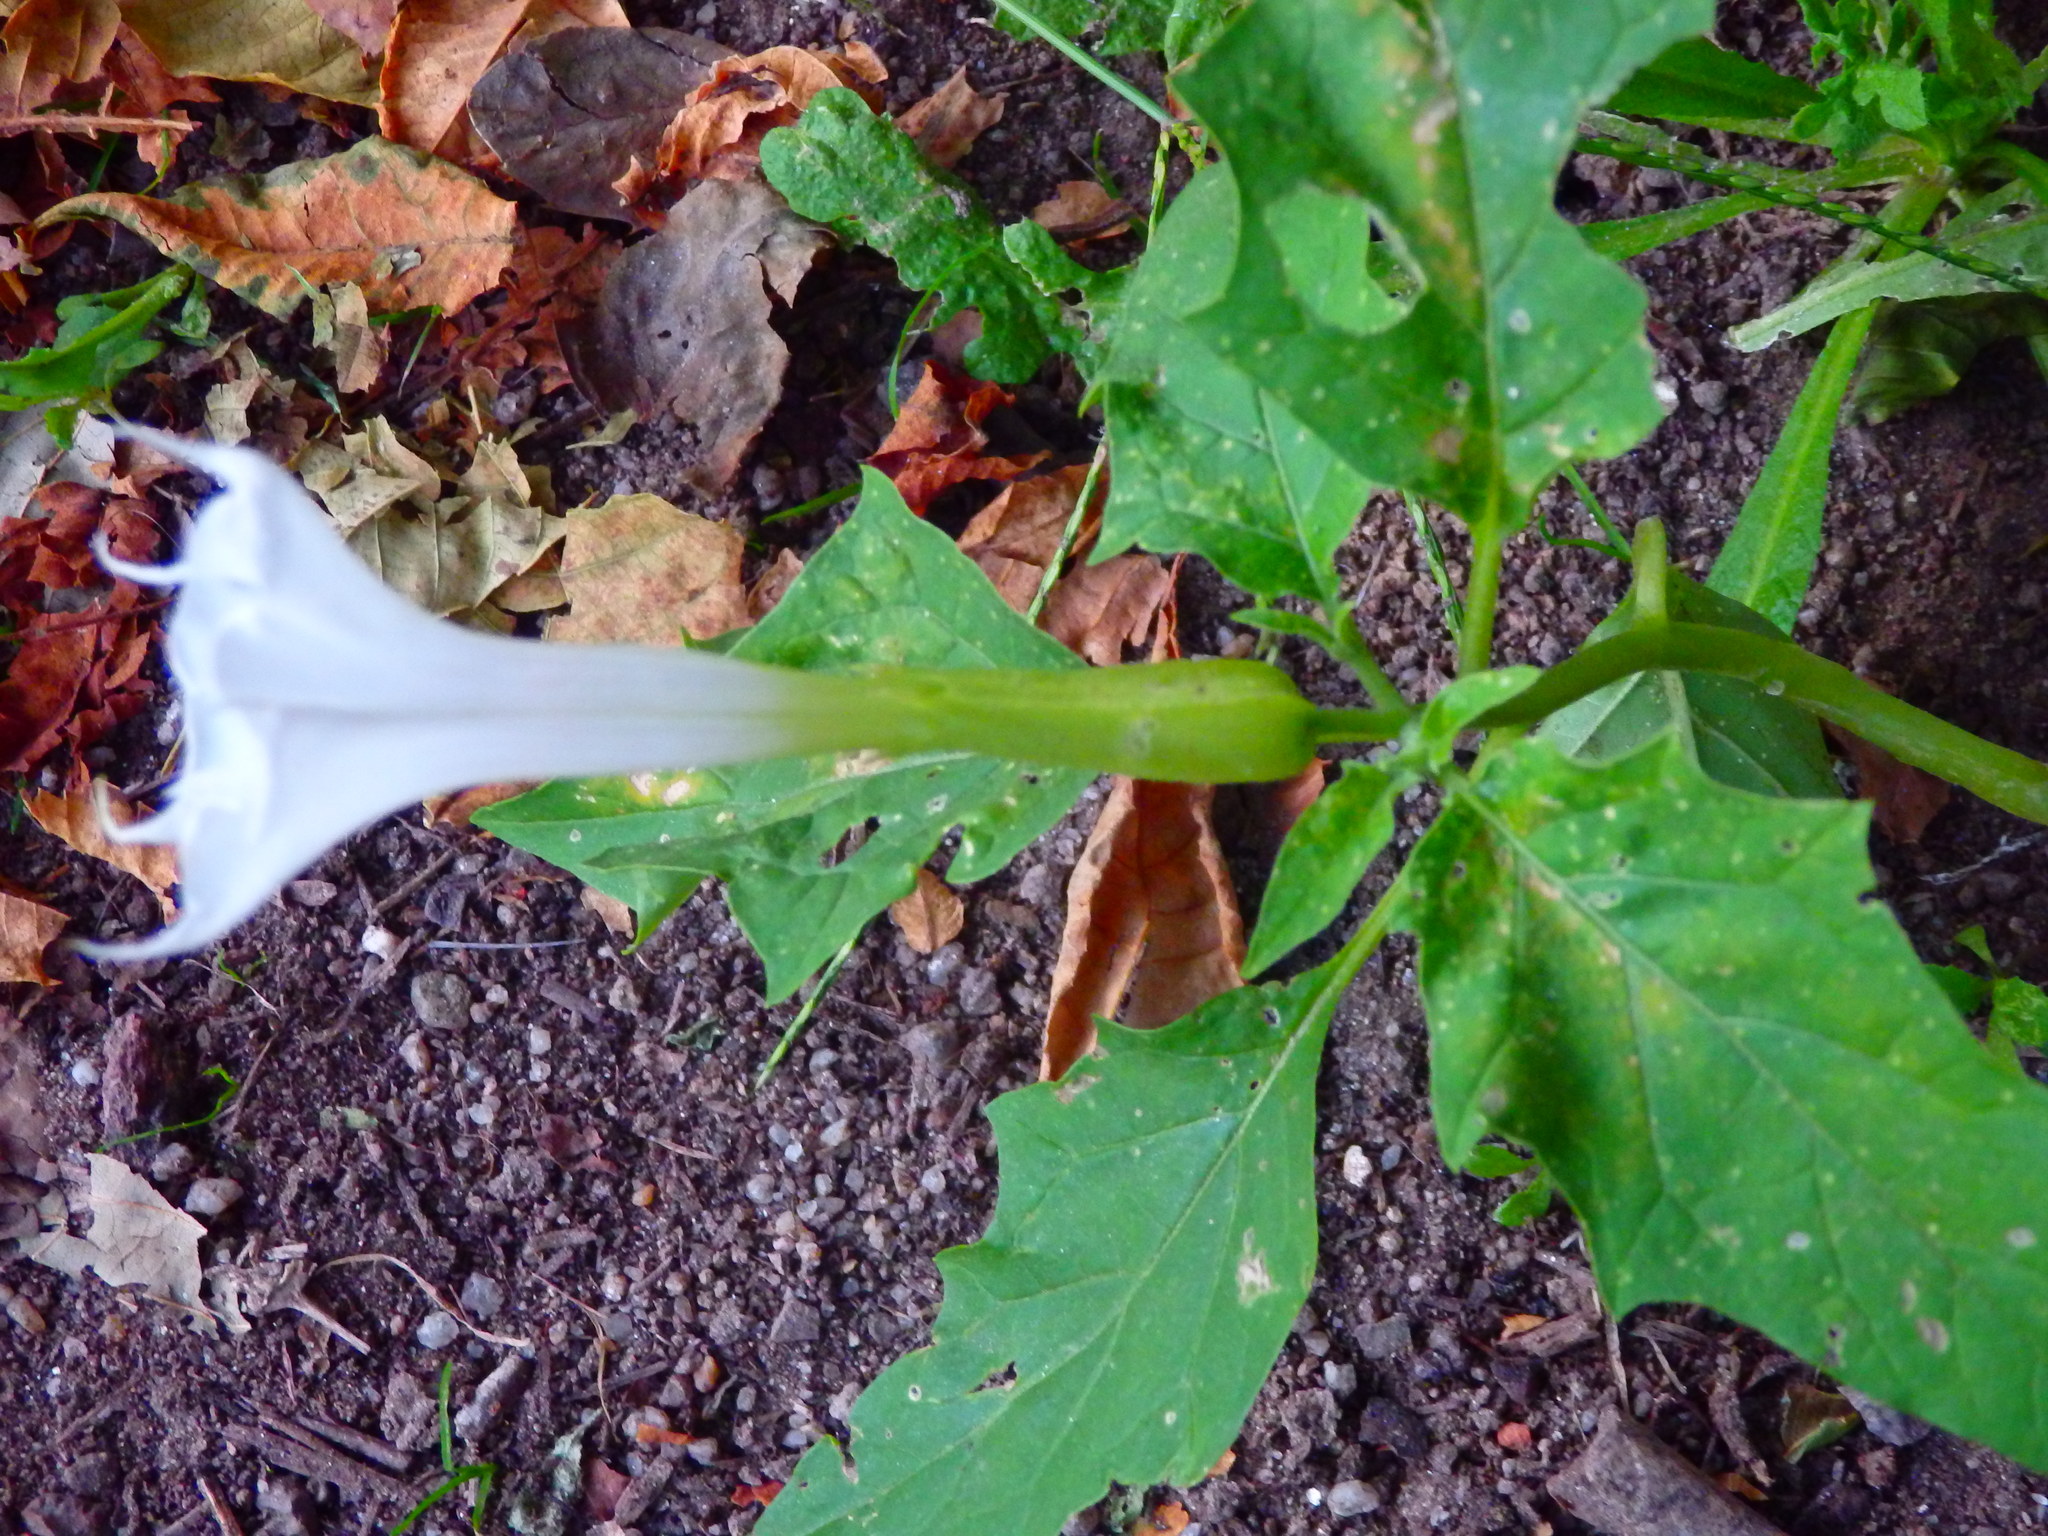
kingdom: Plantae
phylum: Tracheophyta
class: Magnoliopsida
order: Solanales
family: Solanaceae
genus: Datura
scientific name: Datura stramonium
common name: Thorn-apple
